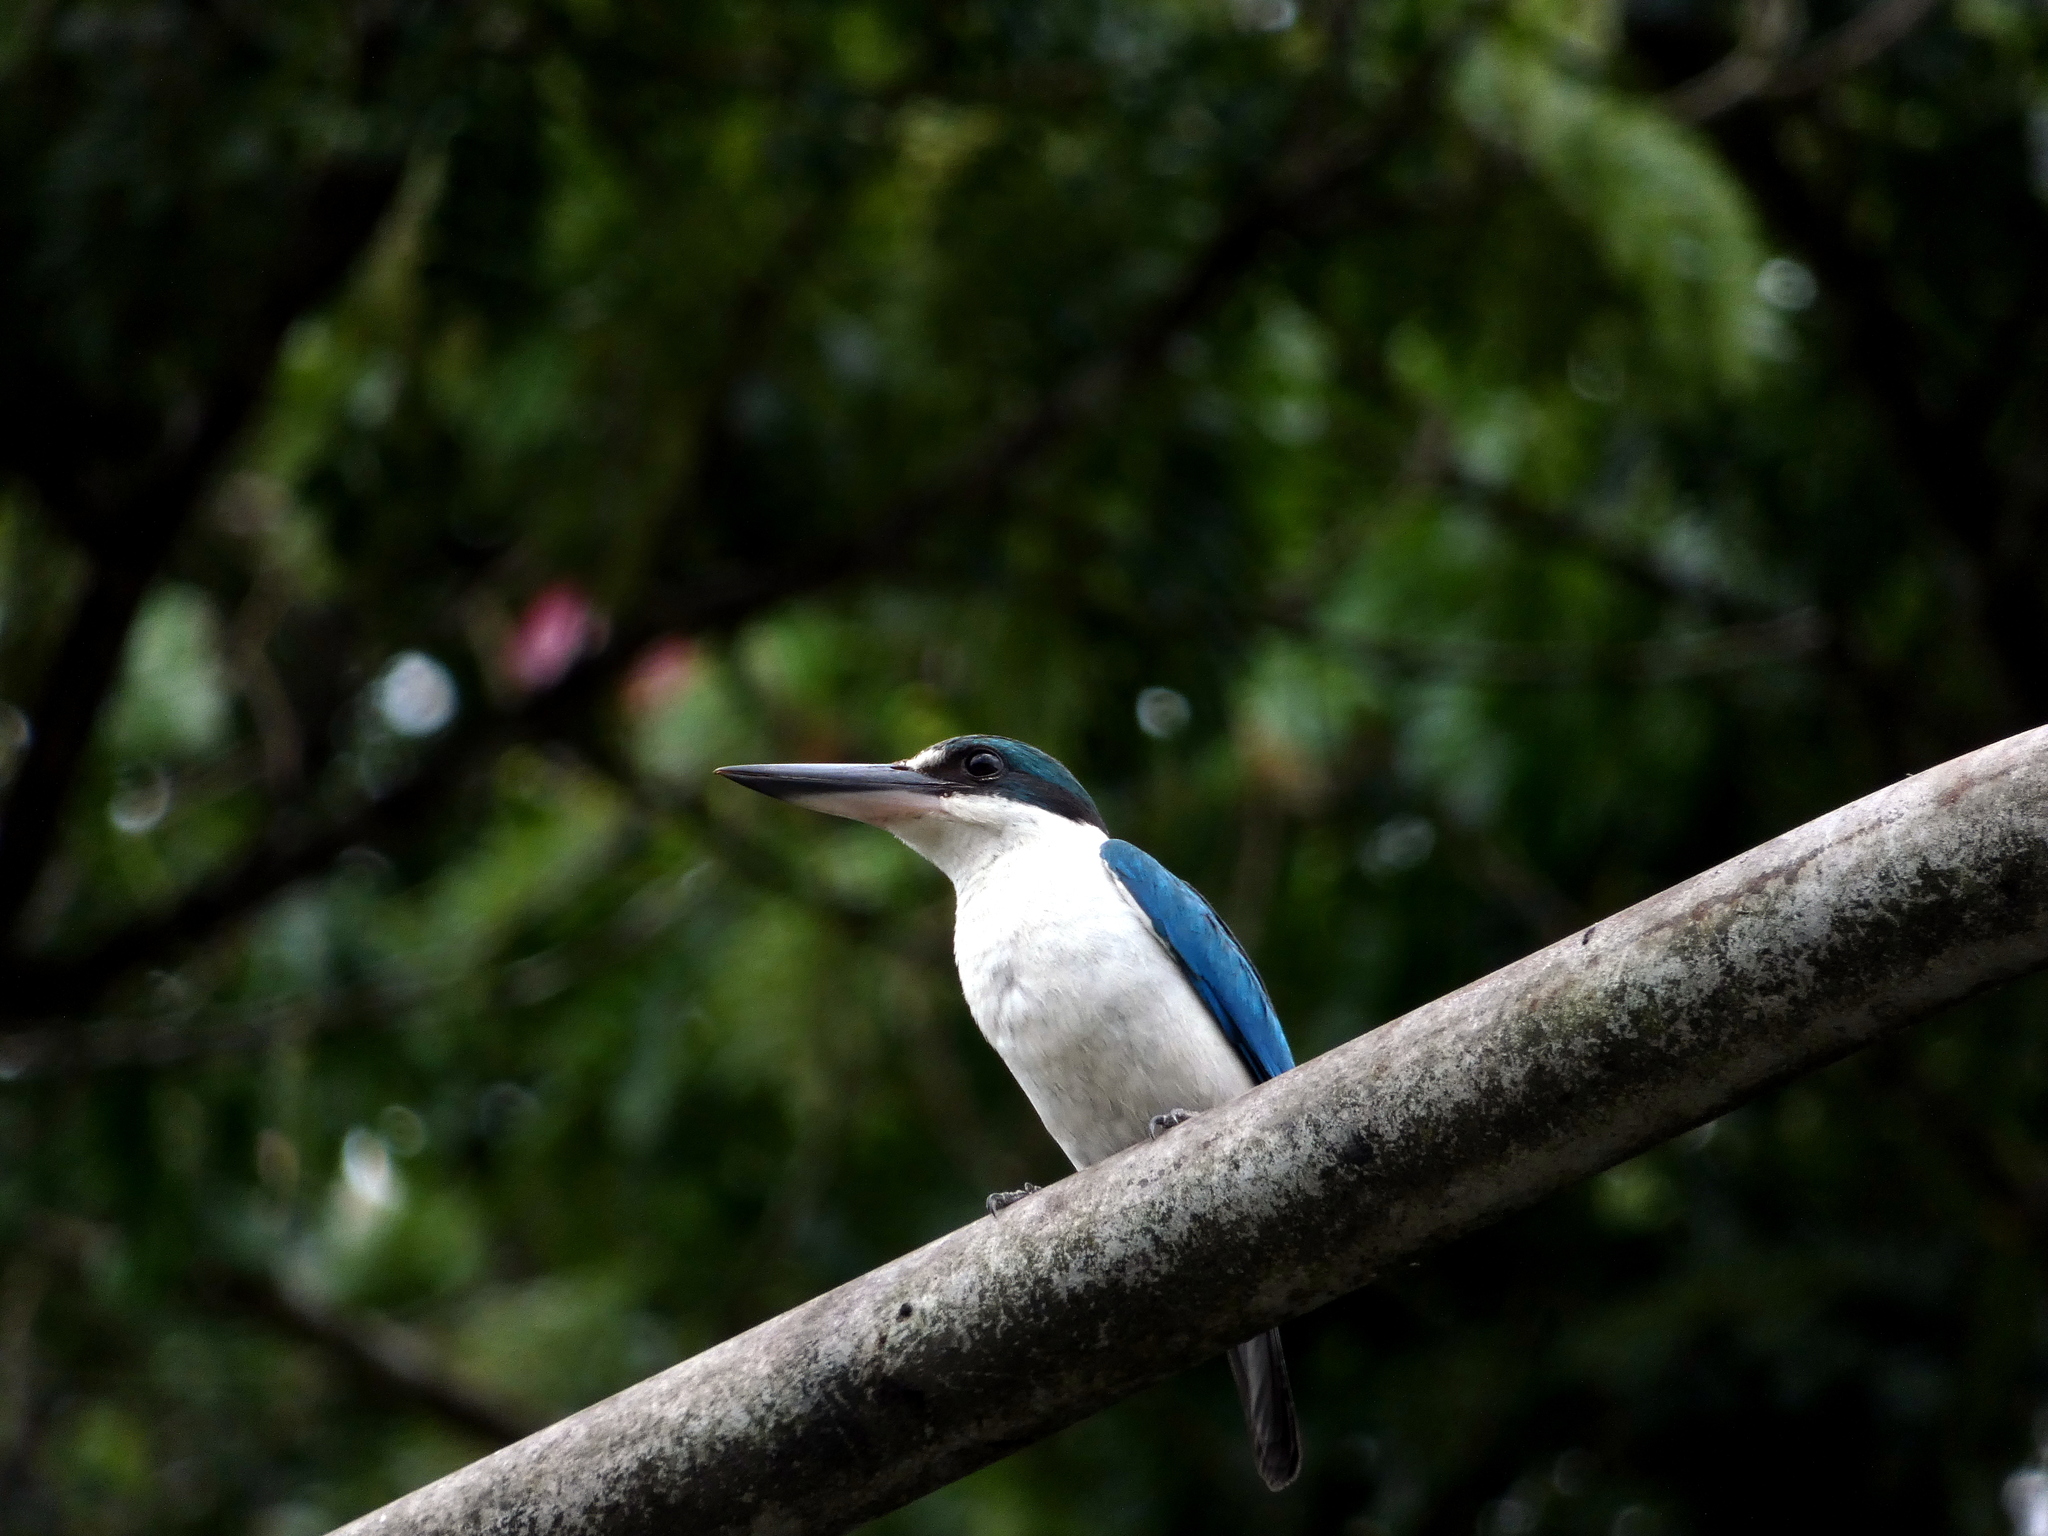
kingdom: Animalia
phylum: Chordata
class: Aves
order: Coraciiformes
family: Alcedinidae
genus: Todiramphus
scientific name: Todiramphus chloris
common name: Collared kingfisher
